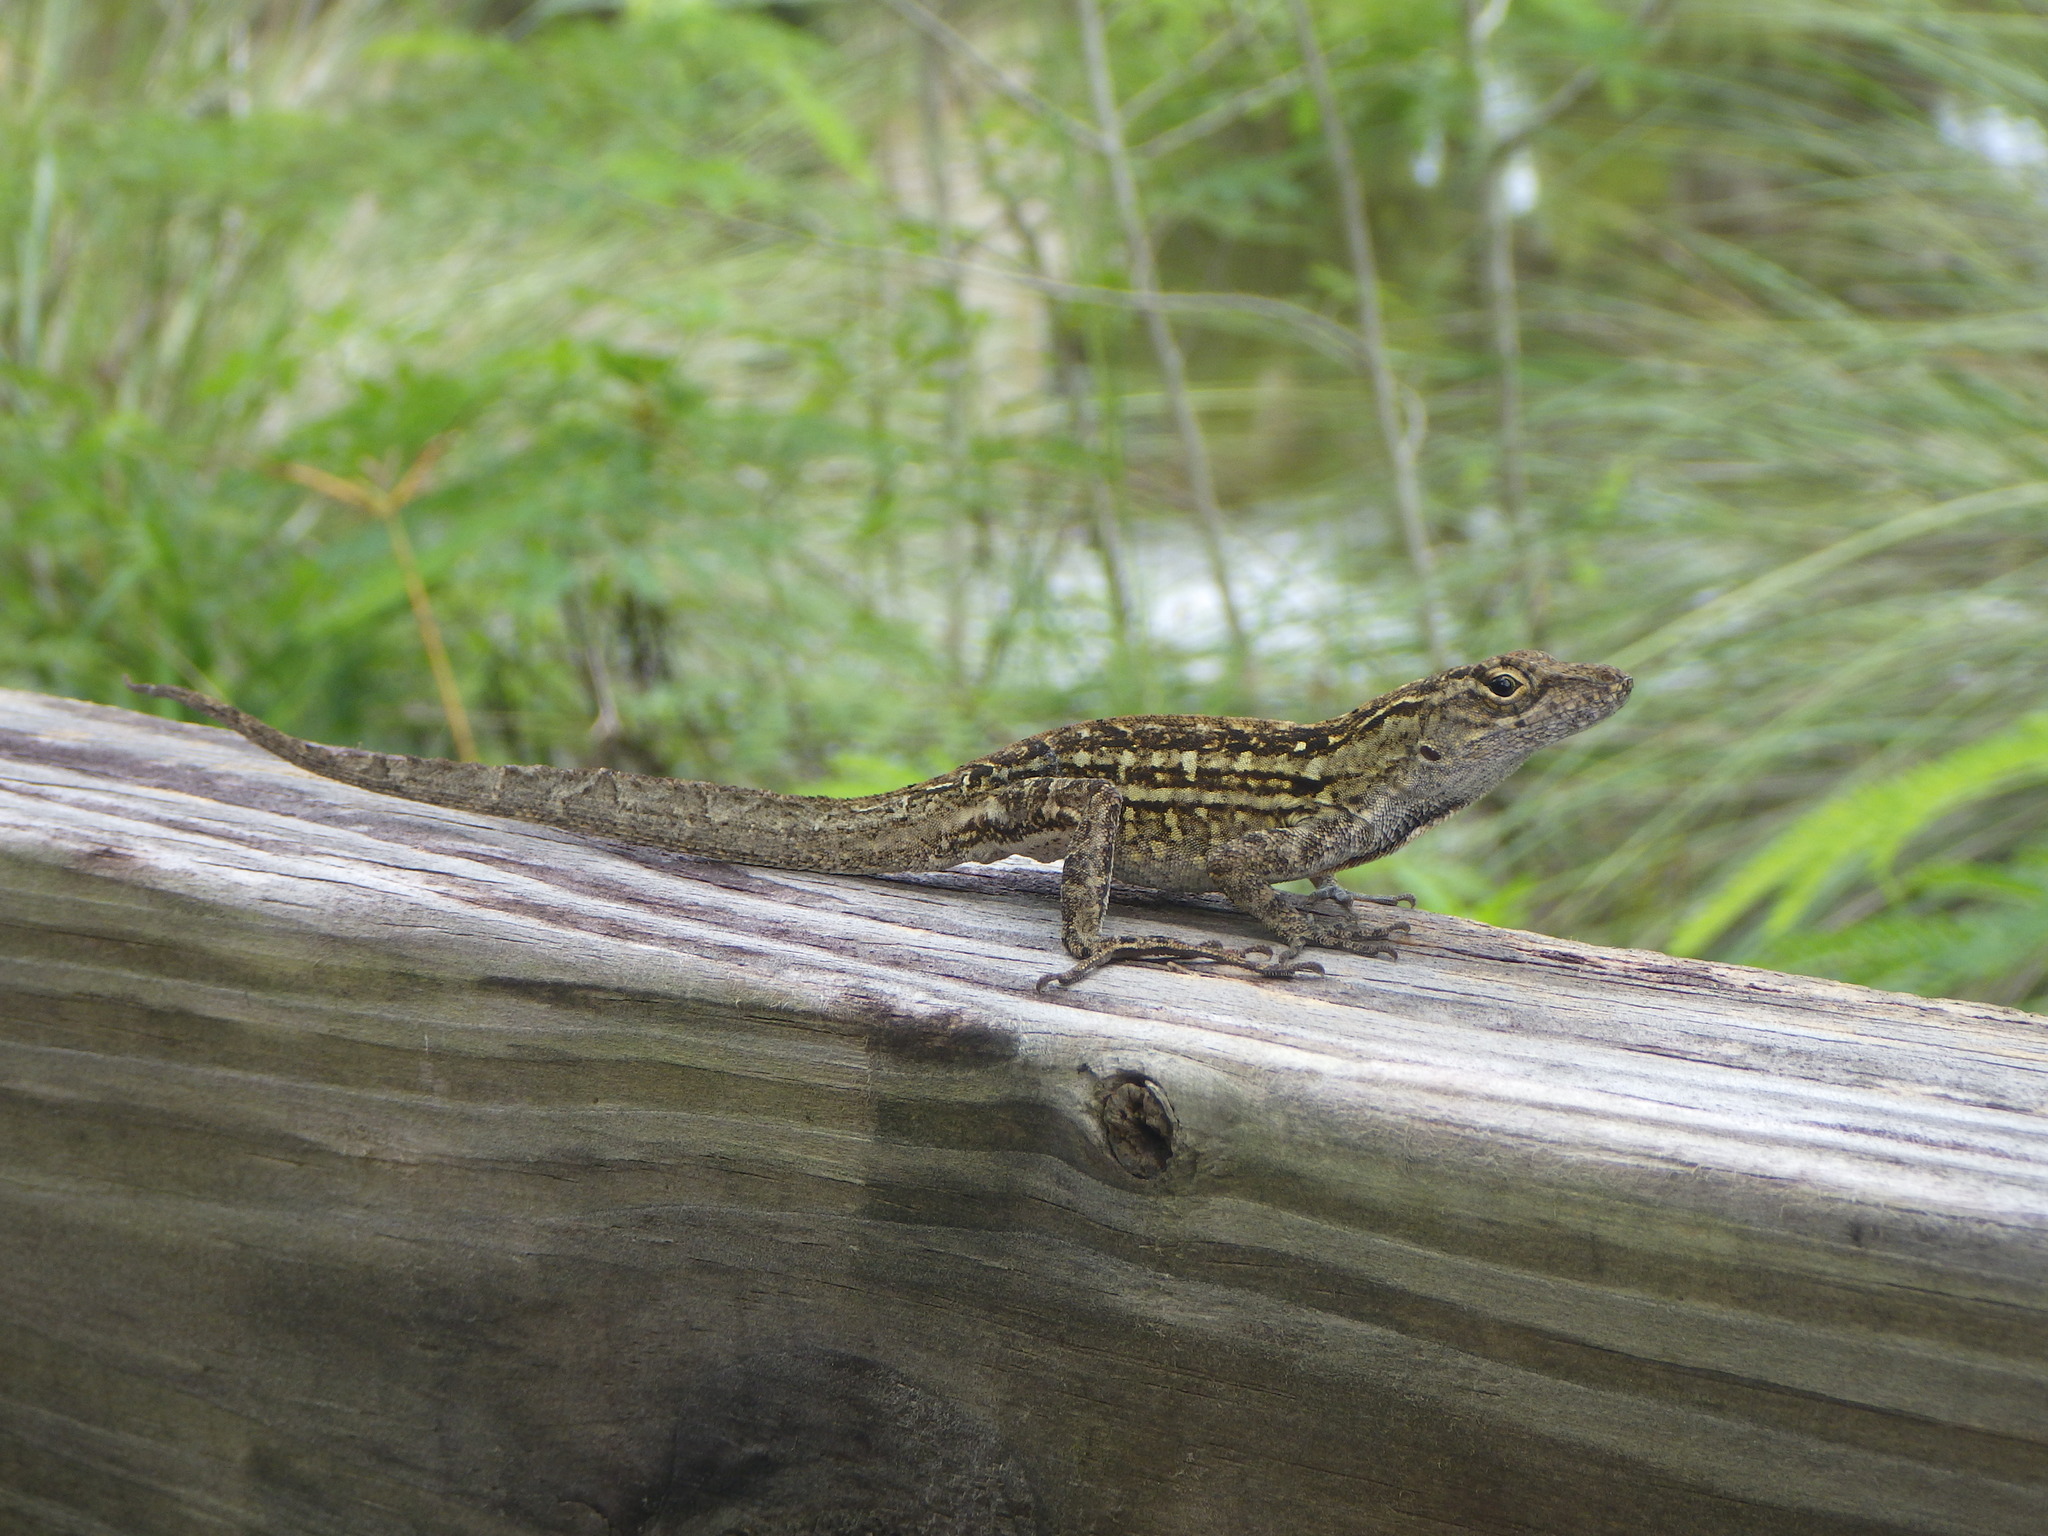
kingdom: Animalia
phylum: Chordata
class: Squamata
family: Dactyloidae
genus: Anolis
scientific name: Anolis sagrei
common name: Brown anole
